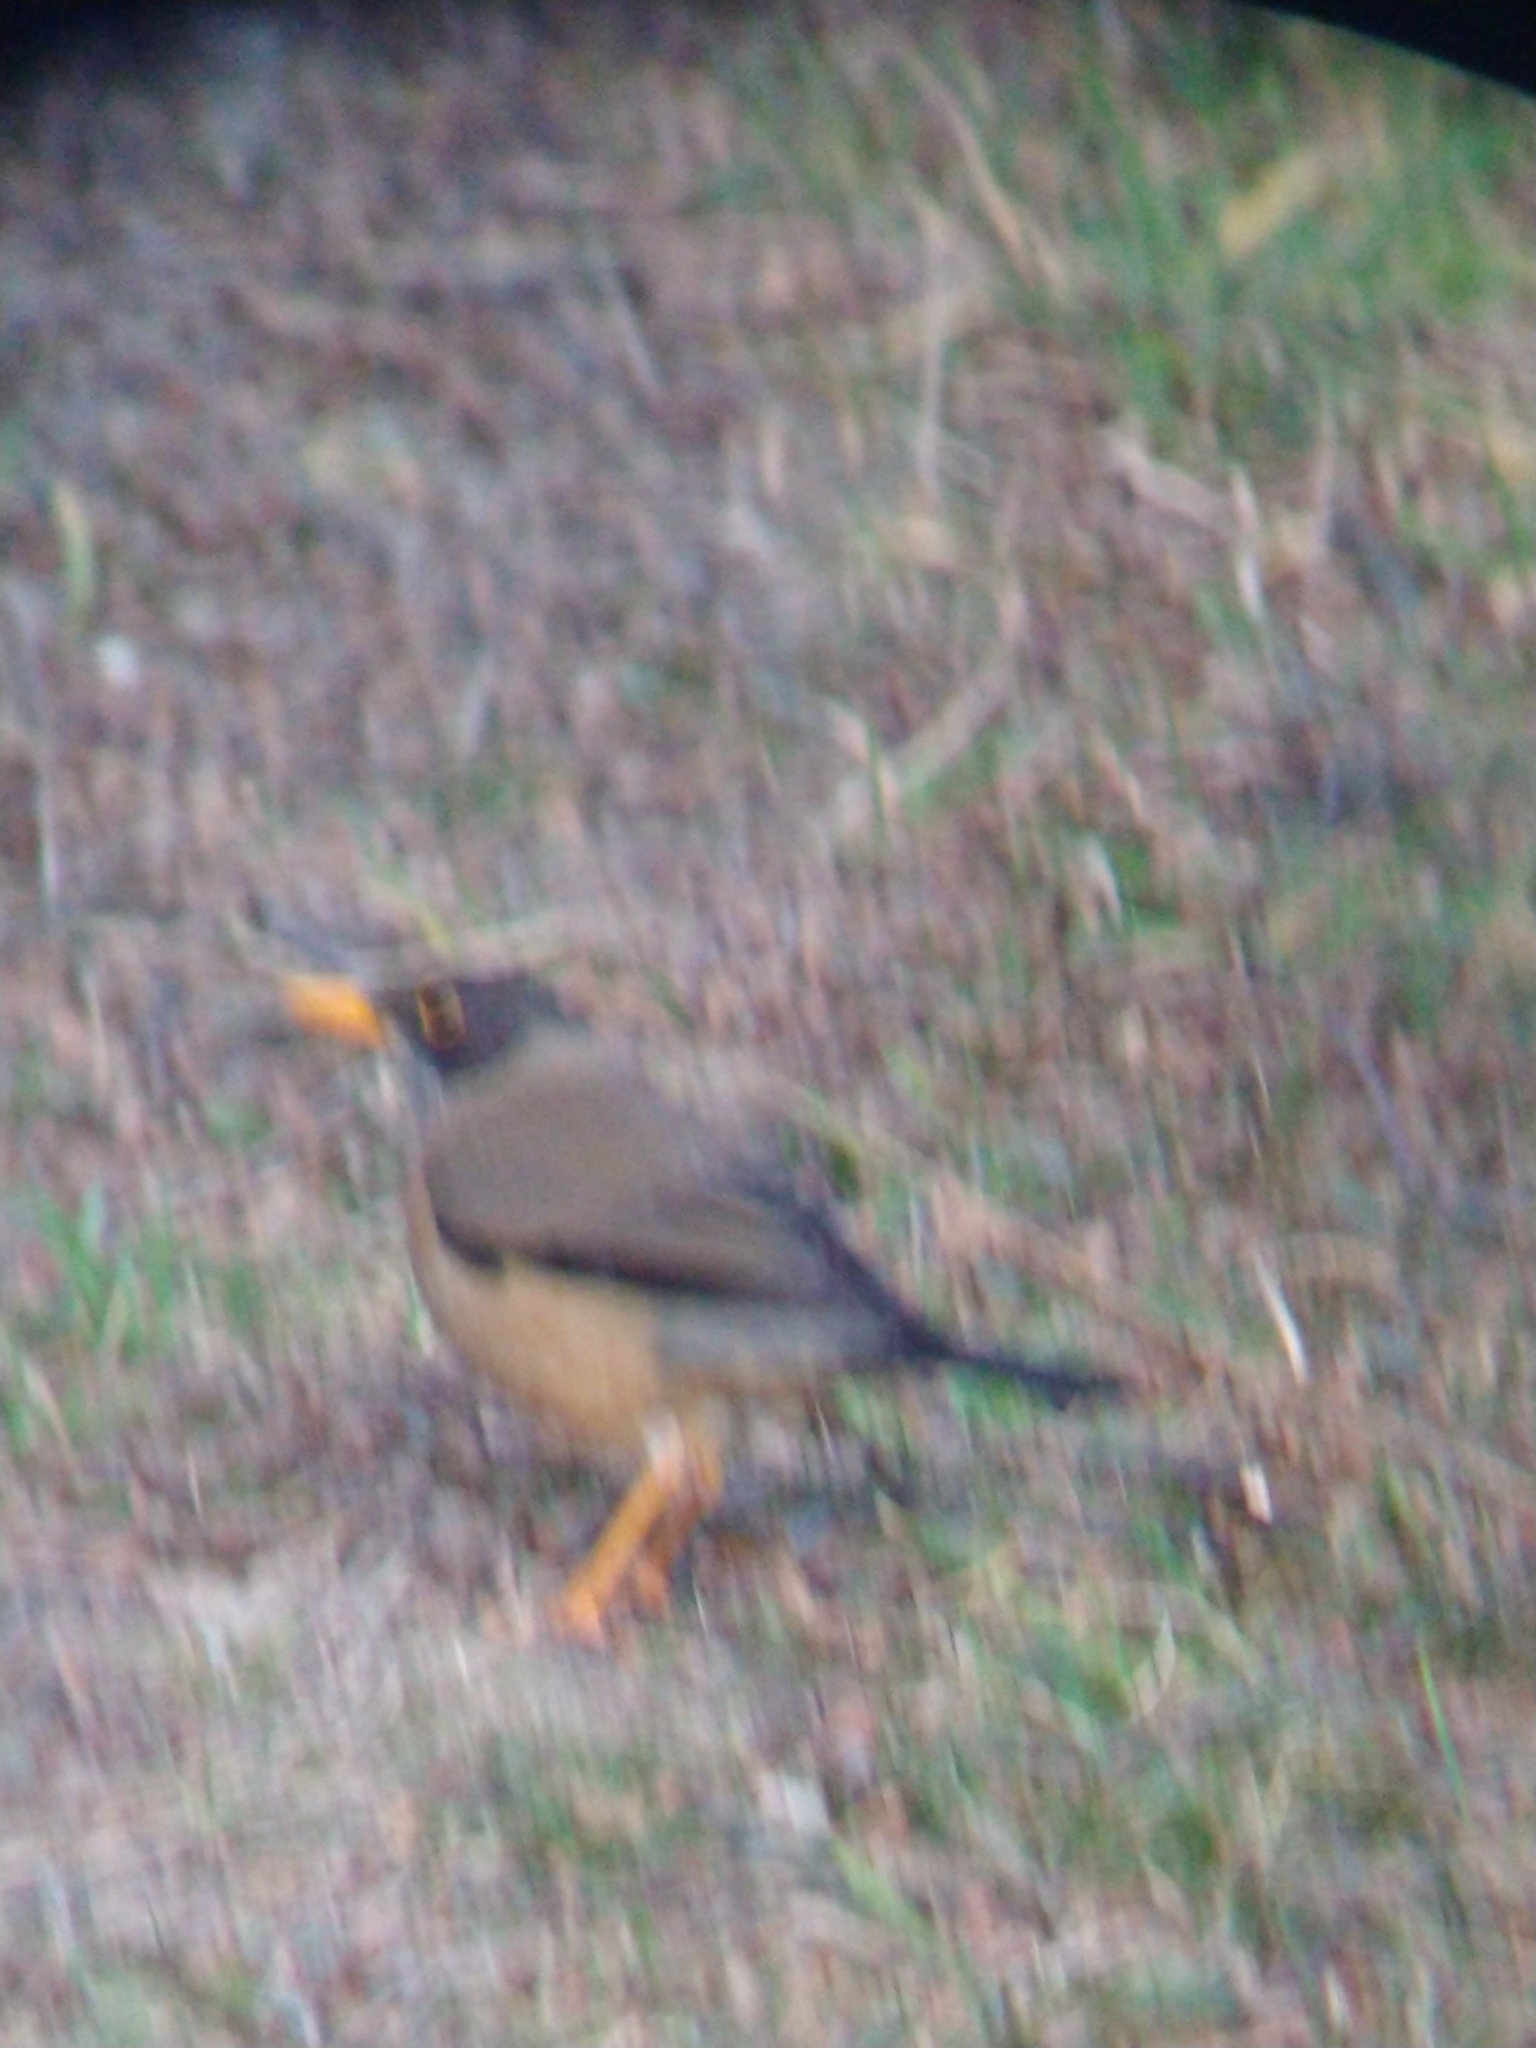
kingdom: Animalia
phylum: Chordata
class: Aves
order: Passeriformes
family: Turdidae
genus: Turdus
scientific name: Turdus falcklandii
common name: Austral thrush
